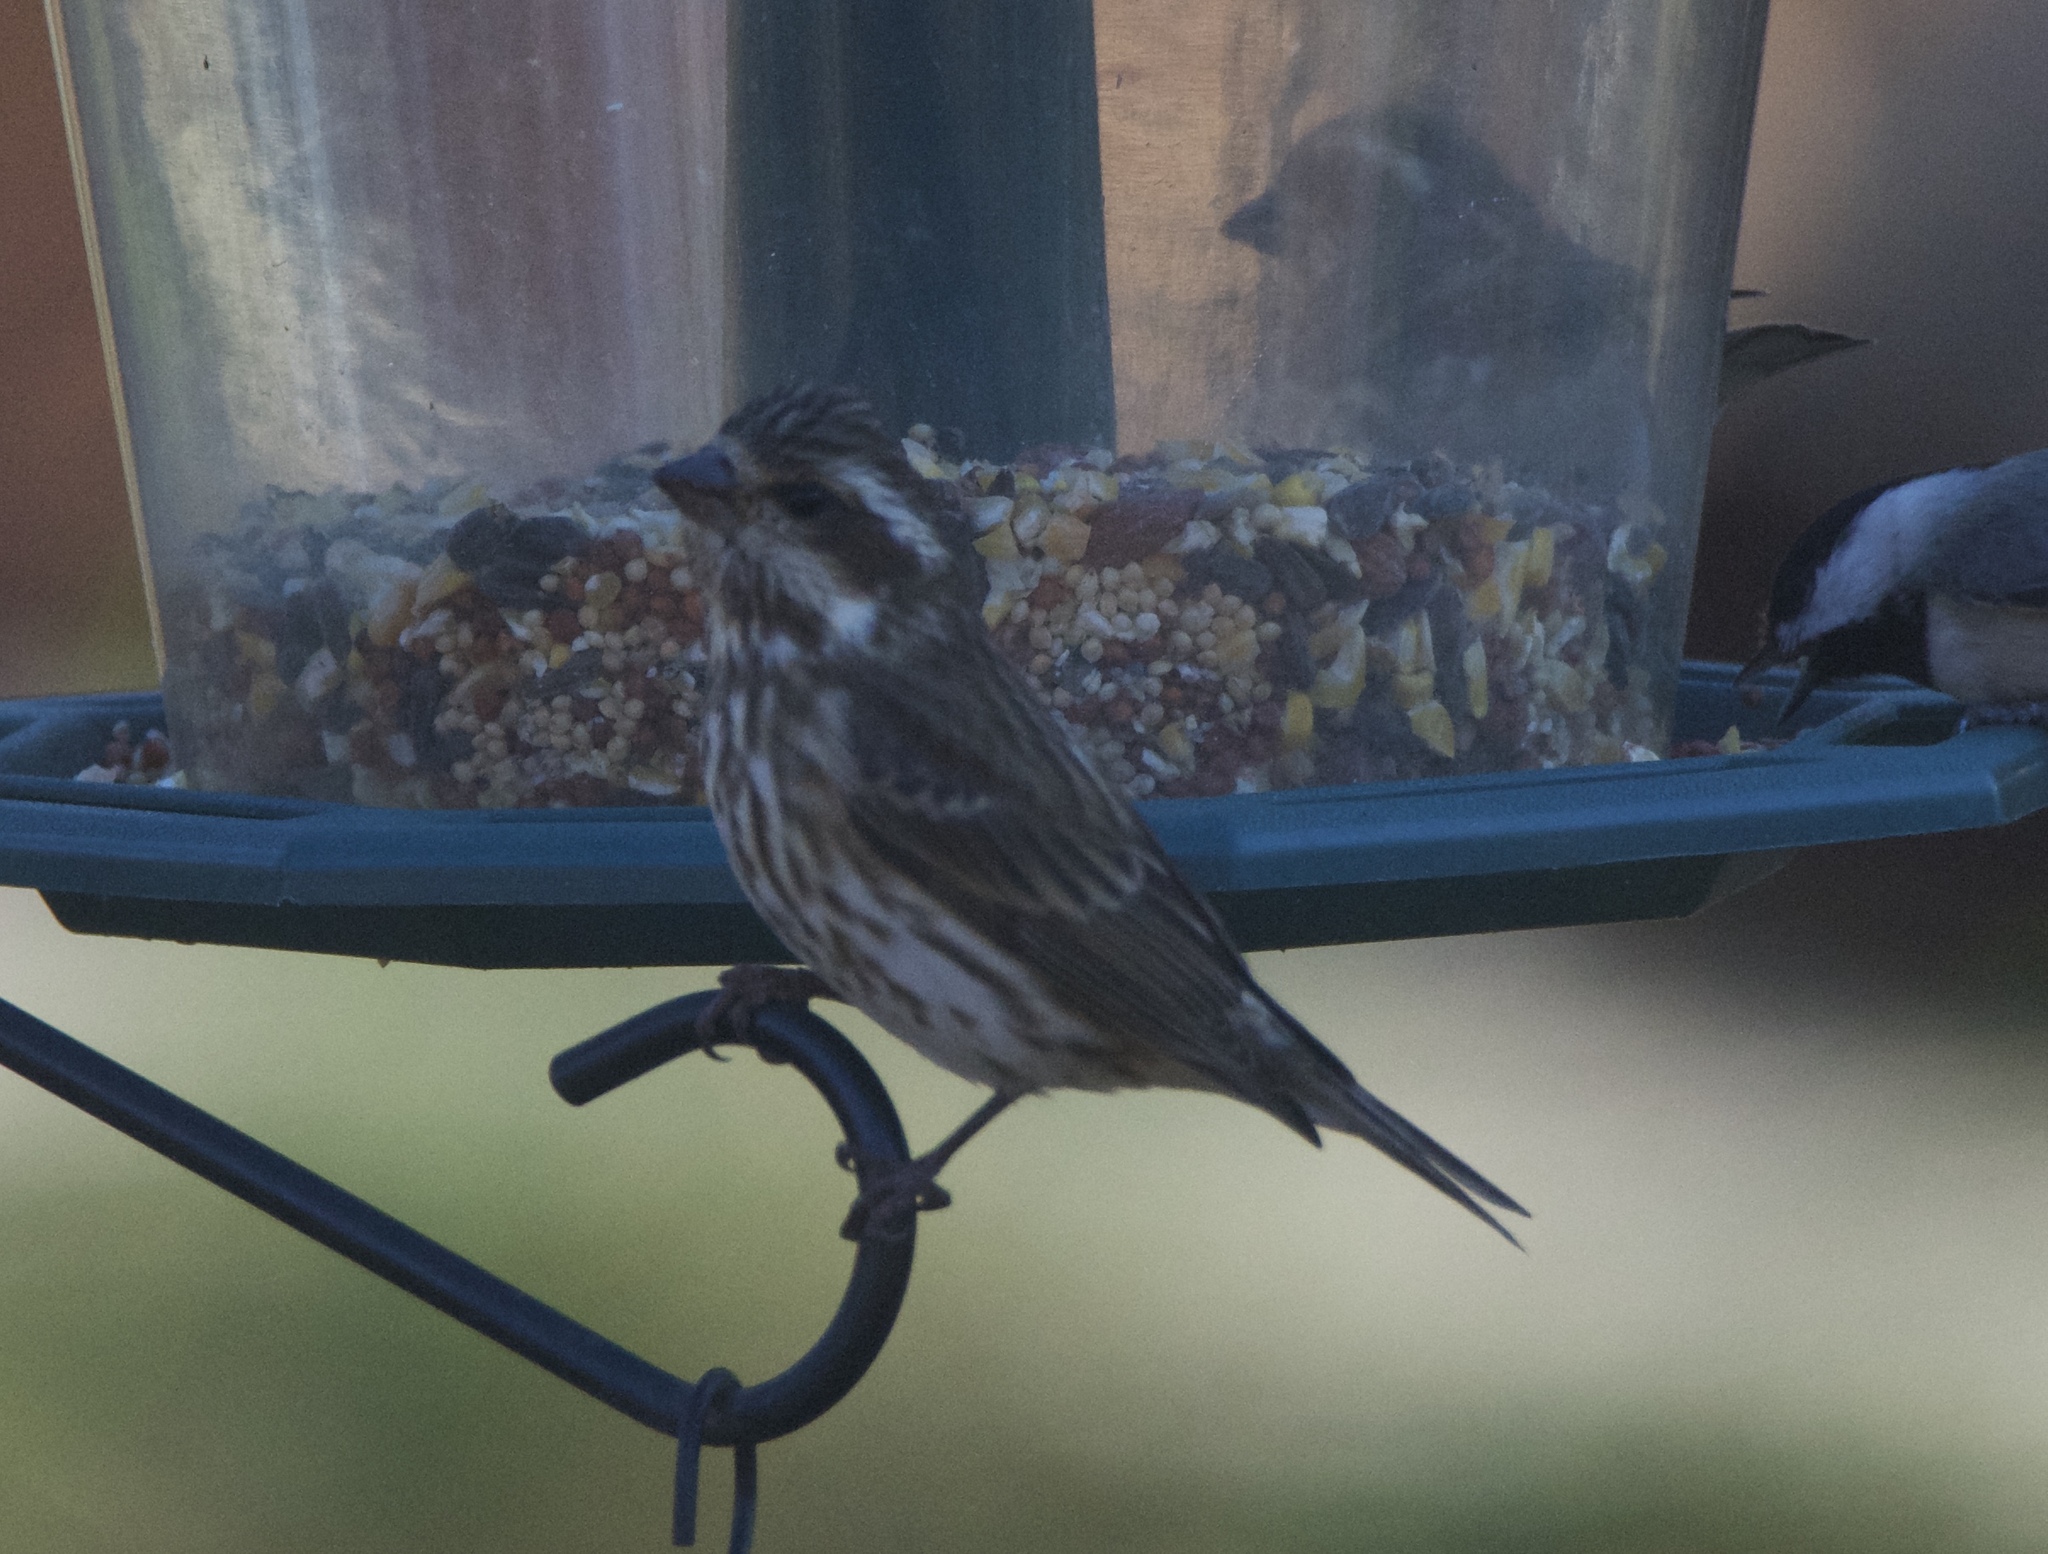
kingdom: Animalia
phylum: Chordata
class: Aves
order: Passeriformes
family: Fringillidae
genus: Haemorhous
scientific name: Haemorhous purpureus
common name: Purple finch
